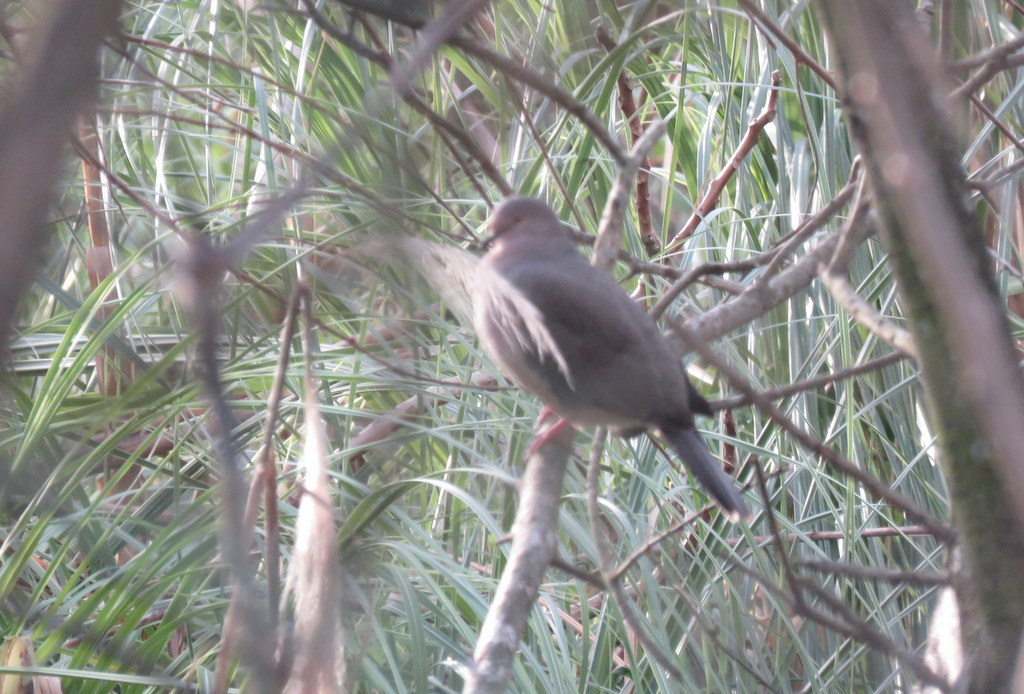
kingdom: Animalia
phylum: Chordata
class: Aves
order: Columbiformes
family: Columbidae
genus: Leptotila
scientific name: Leptotila verreauxi
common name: White-tipped dove
